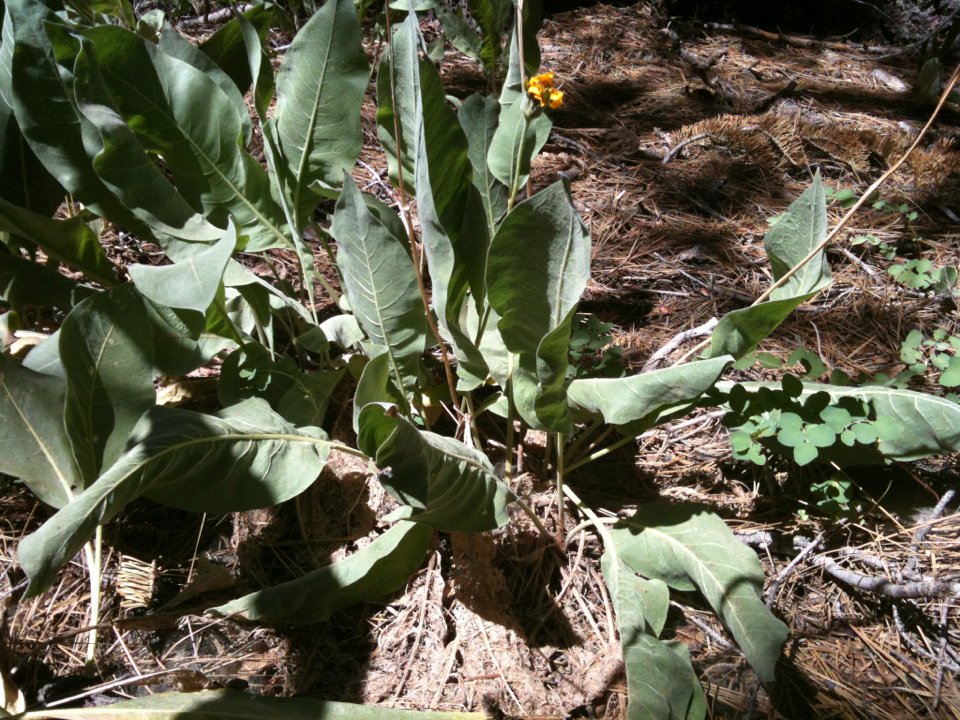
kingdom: Plantae
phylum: Tracheophyta
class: Magnoliopsida
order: Asterales
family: Asteraceae
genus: Wyethia
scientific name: Wyethia mollis
